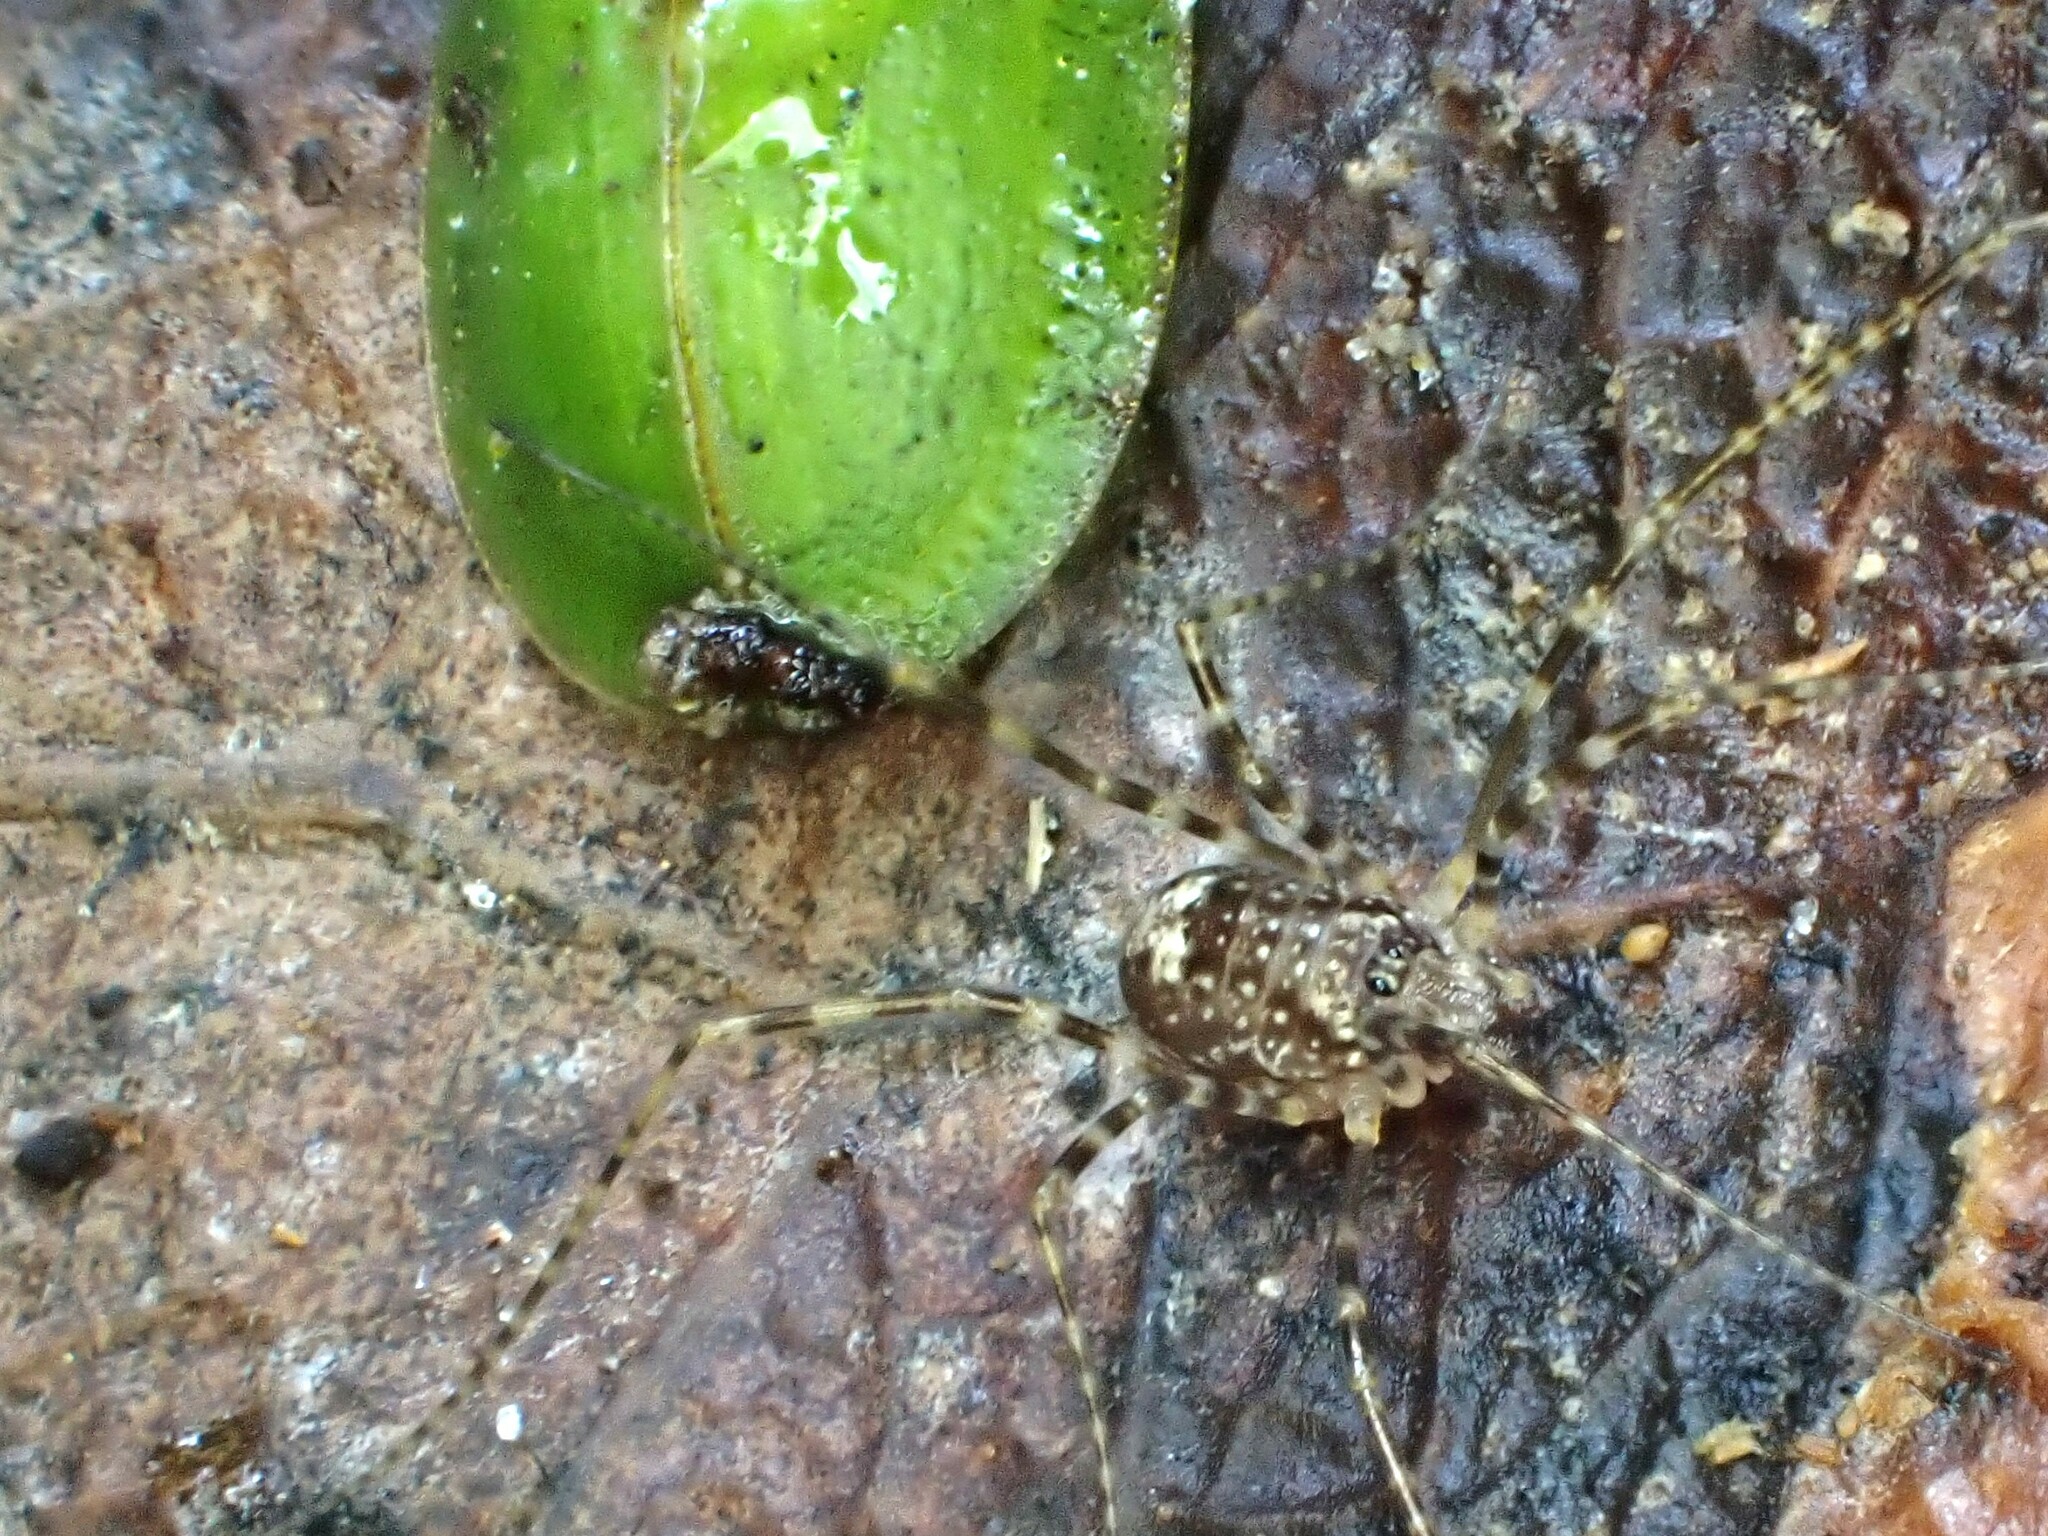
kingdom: Animalia
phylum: Arthropoda
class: Insecta
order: Coleoptera
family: Chrysomelidae
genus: Cassida
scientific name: Cassida rubiginosa
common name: Thistle tortoise beetle
